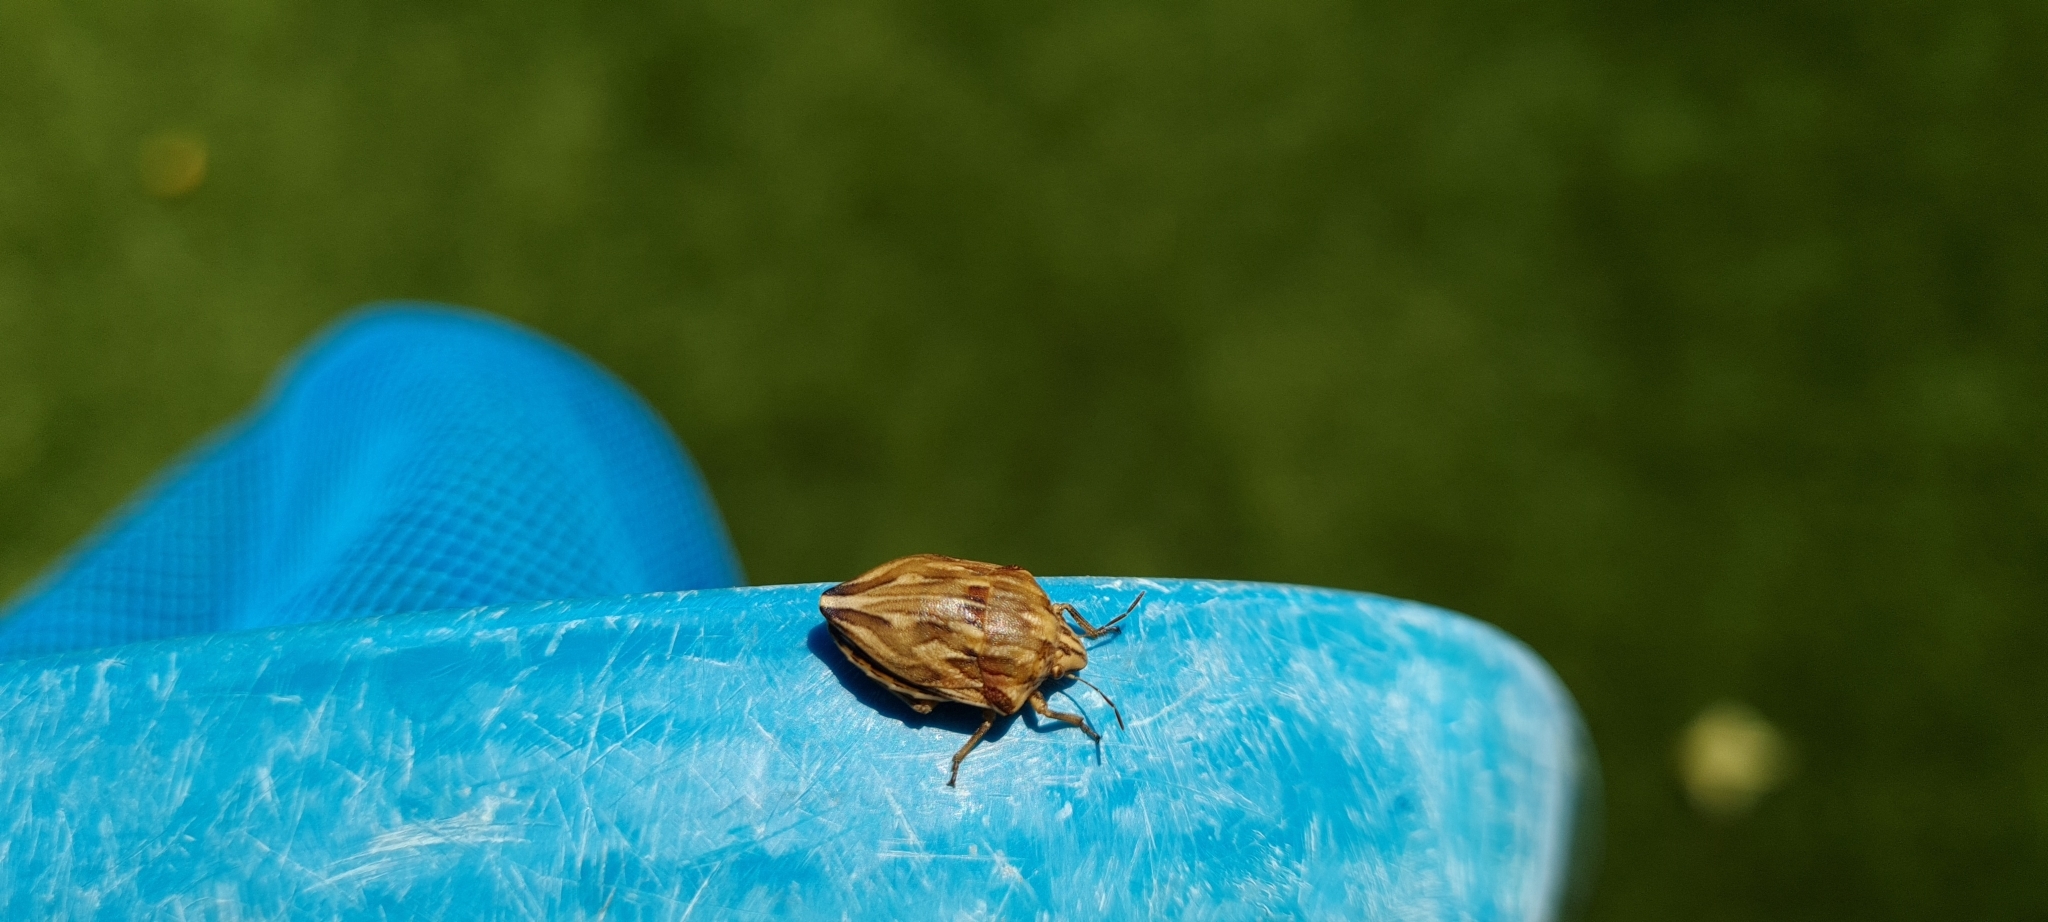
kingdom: Animalia
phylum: Arthropoda
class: Insecta
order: Hemiptera
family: Scutelleridae
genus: Odontotarsus
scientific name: Odontotarsus robustus
